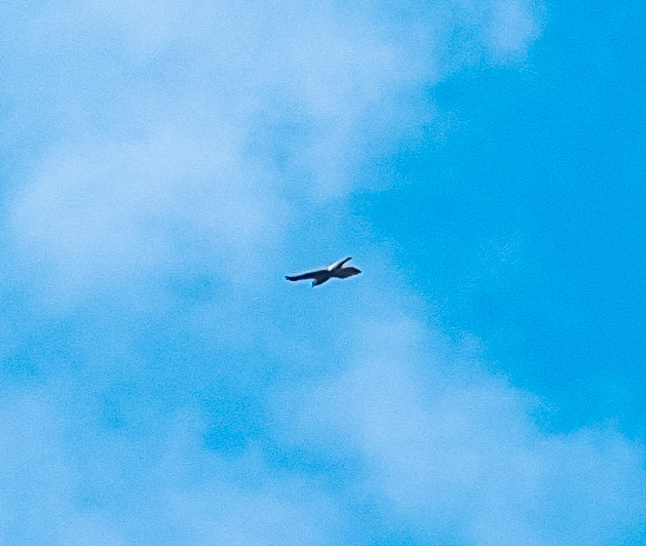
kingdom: Animalia
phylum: Chordata
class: Aves
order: Accipitriformes
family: Accipitridae
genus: Accipiter
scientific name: Accipiter trivirgatus
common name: Crested goshawk
